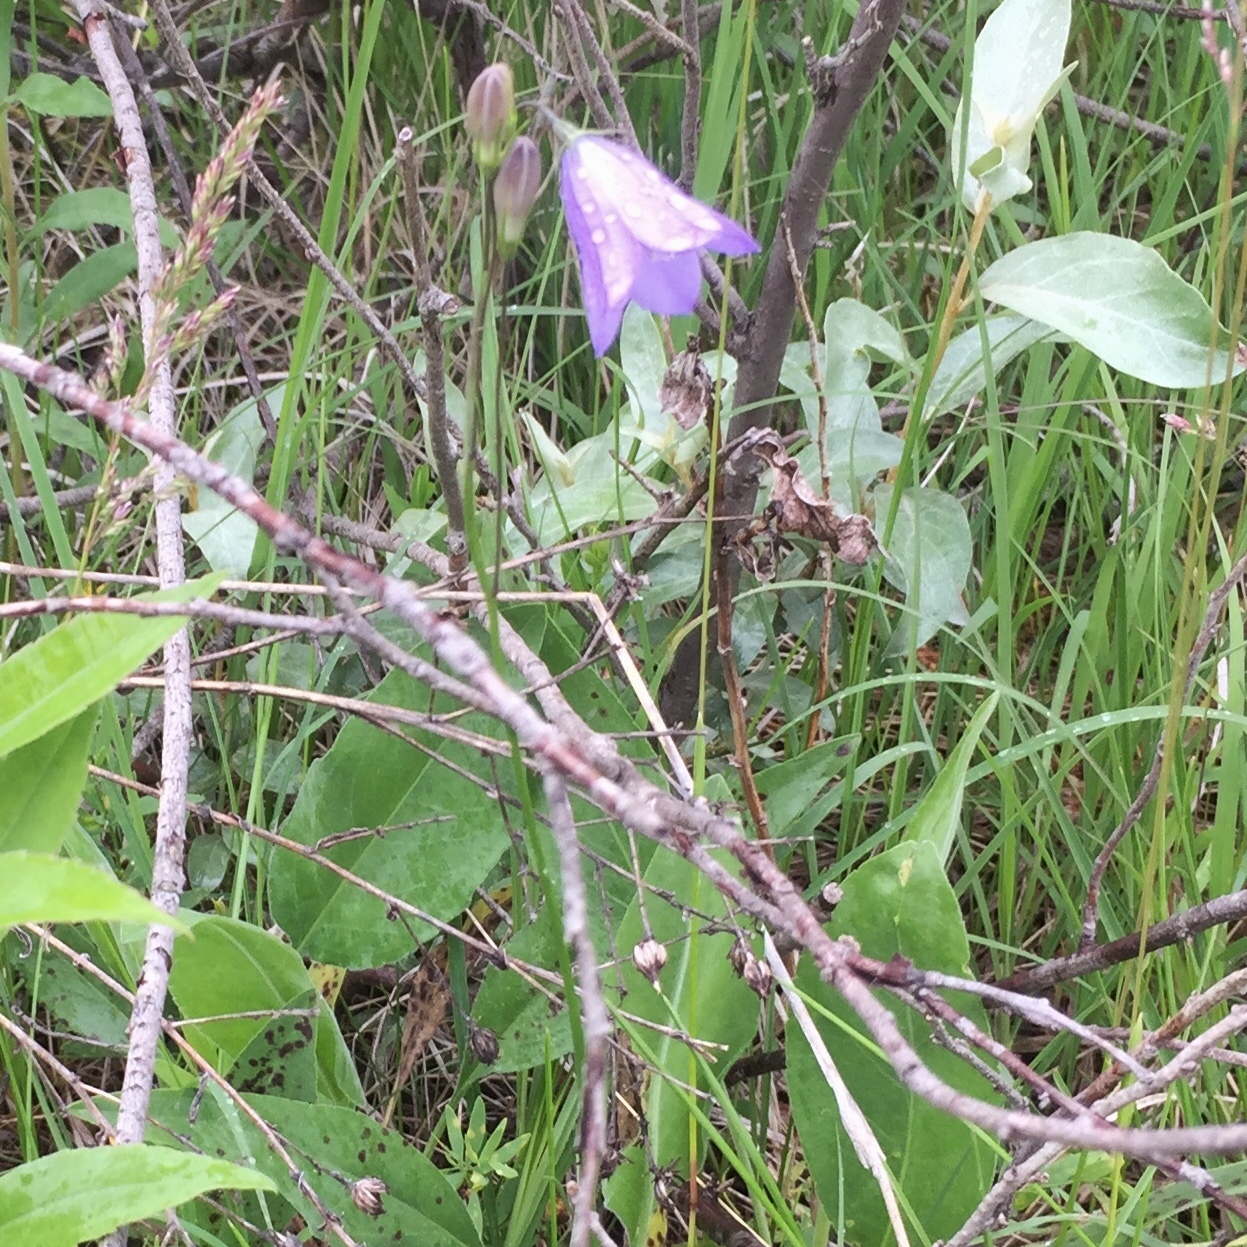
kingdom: Plantae
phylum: Tracheophyta
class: Magnoliopsida
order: Asterales
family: Campanulaceae
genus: Campanula
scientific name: Campanula petiolata
